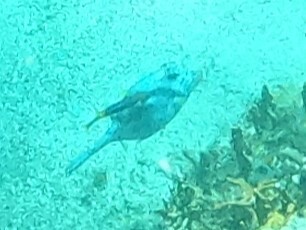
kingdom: Animalia
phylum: Chordata
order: Tetraodontiformes
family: Ostraciidae
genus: Acanthostracion
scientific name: Acanthostracion quadricornis
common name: Scrawled cowfish
